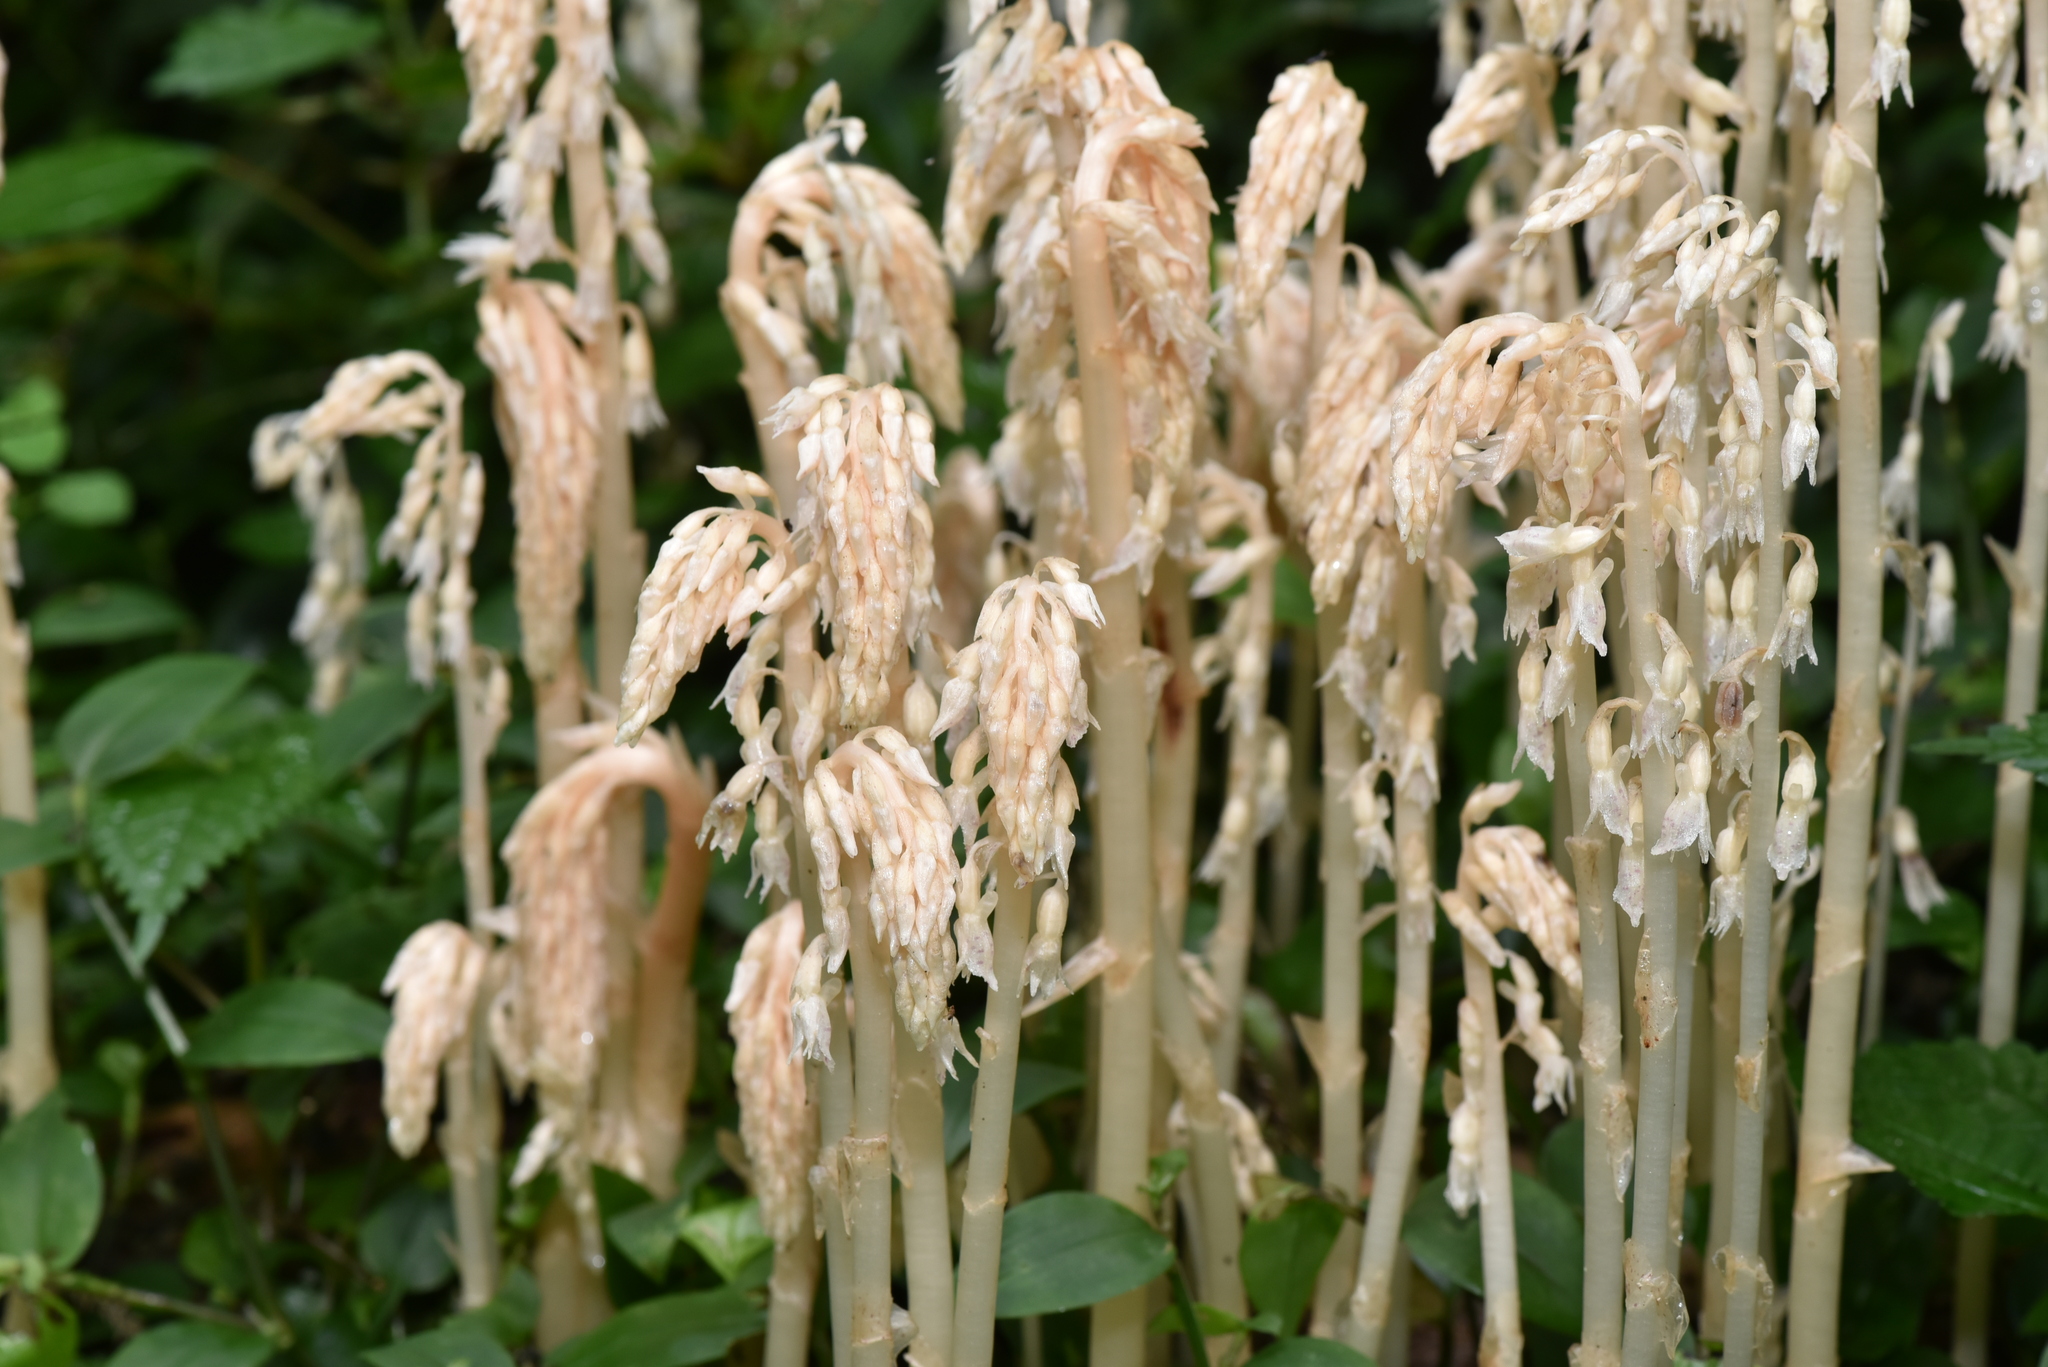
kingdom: Plantae
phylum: Tracheophyta
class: Liliopsida
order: Asparagales
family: Orchidaceae
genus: Epipogium
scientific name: Epipogium roseum
